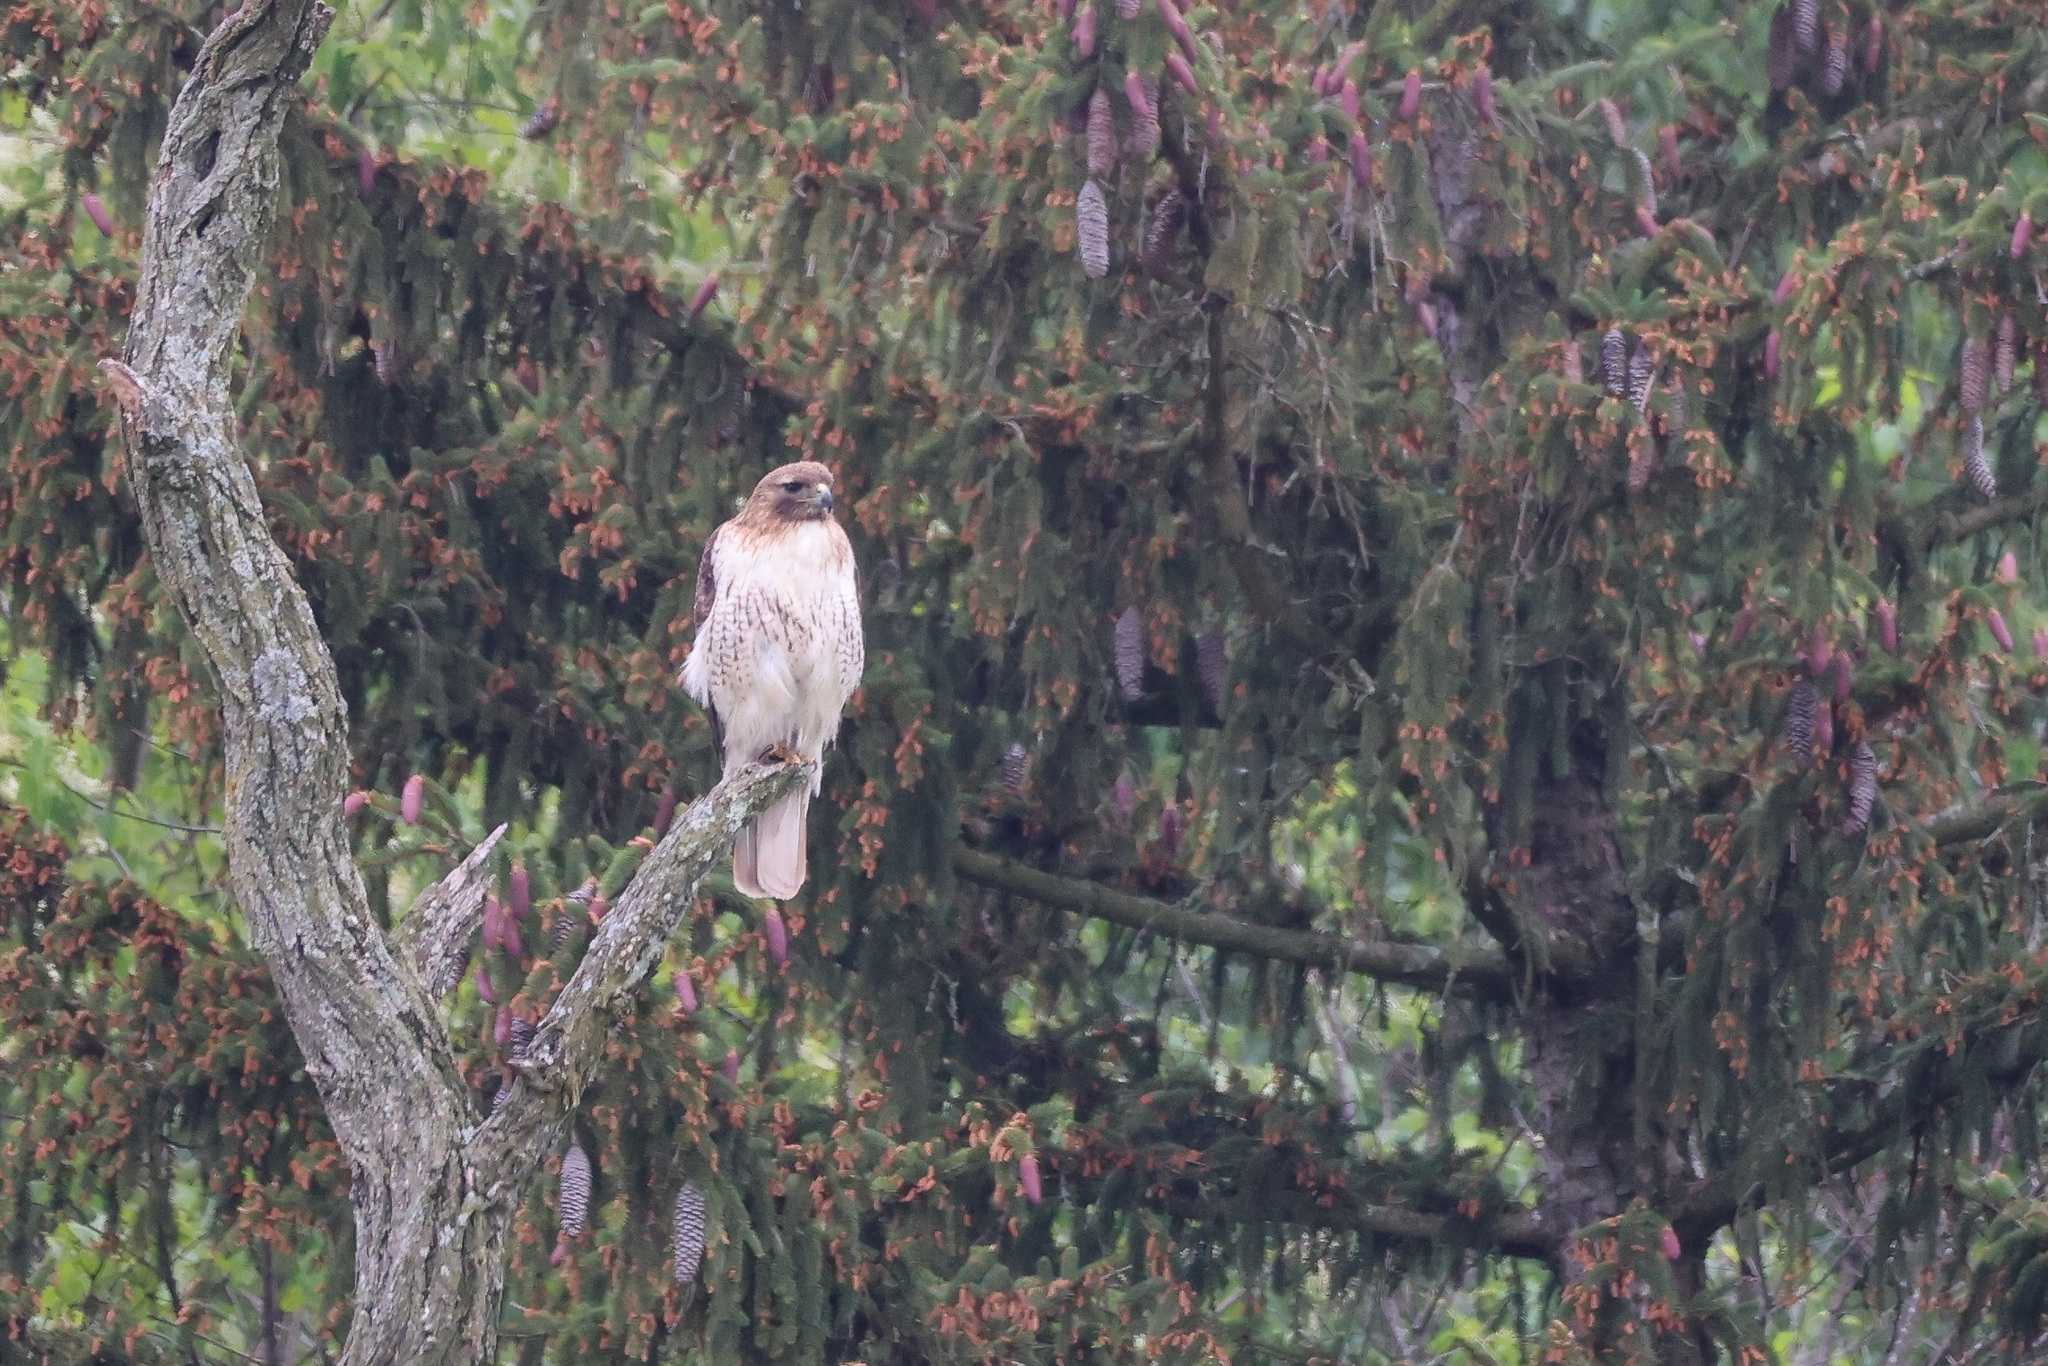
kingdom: Animalia
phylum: Chordata
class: Aves
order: Accipitriformes
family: Accipitridae
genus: Buteo
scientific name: Buteo jamaicensis
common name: Red-tailed hawk
